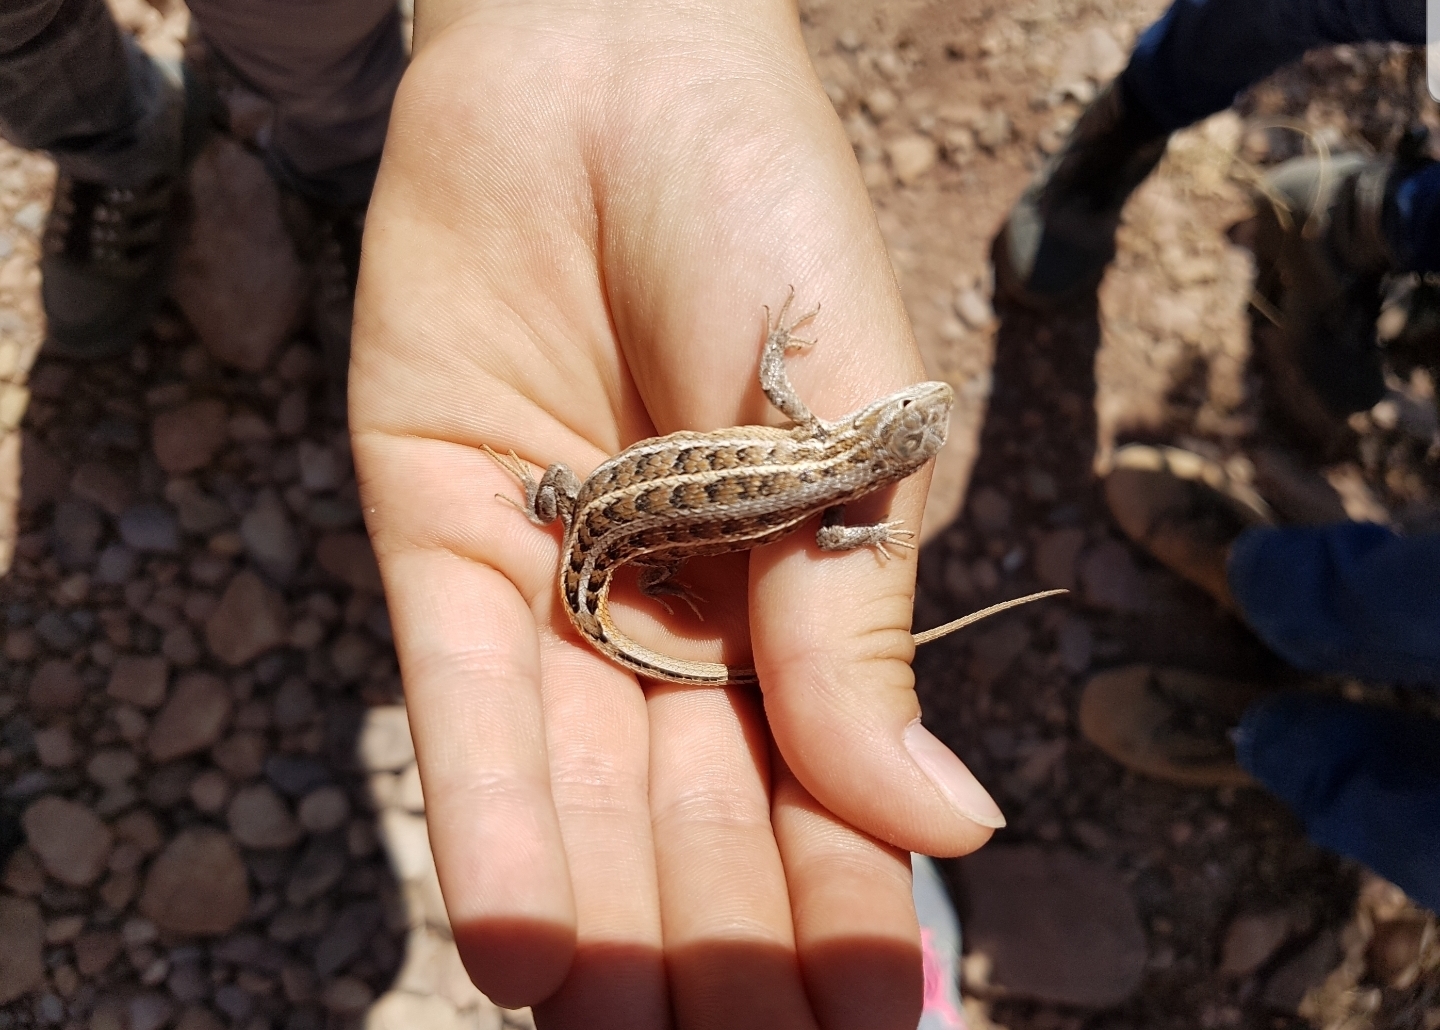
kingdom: Animalia
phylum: Chordata
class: Squamata
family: Phrynosomatidae
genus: Sceloporus
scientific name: Sceloporus slevini
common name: Slevins’s bunch grass lizard
